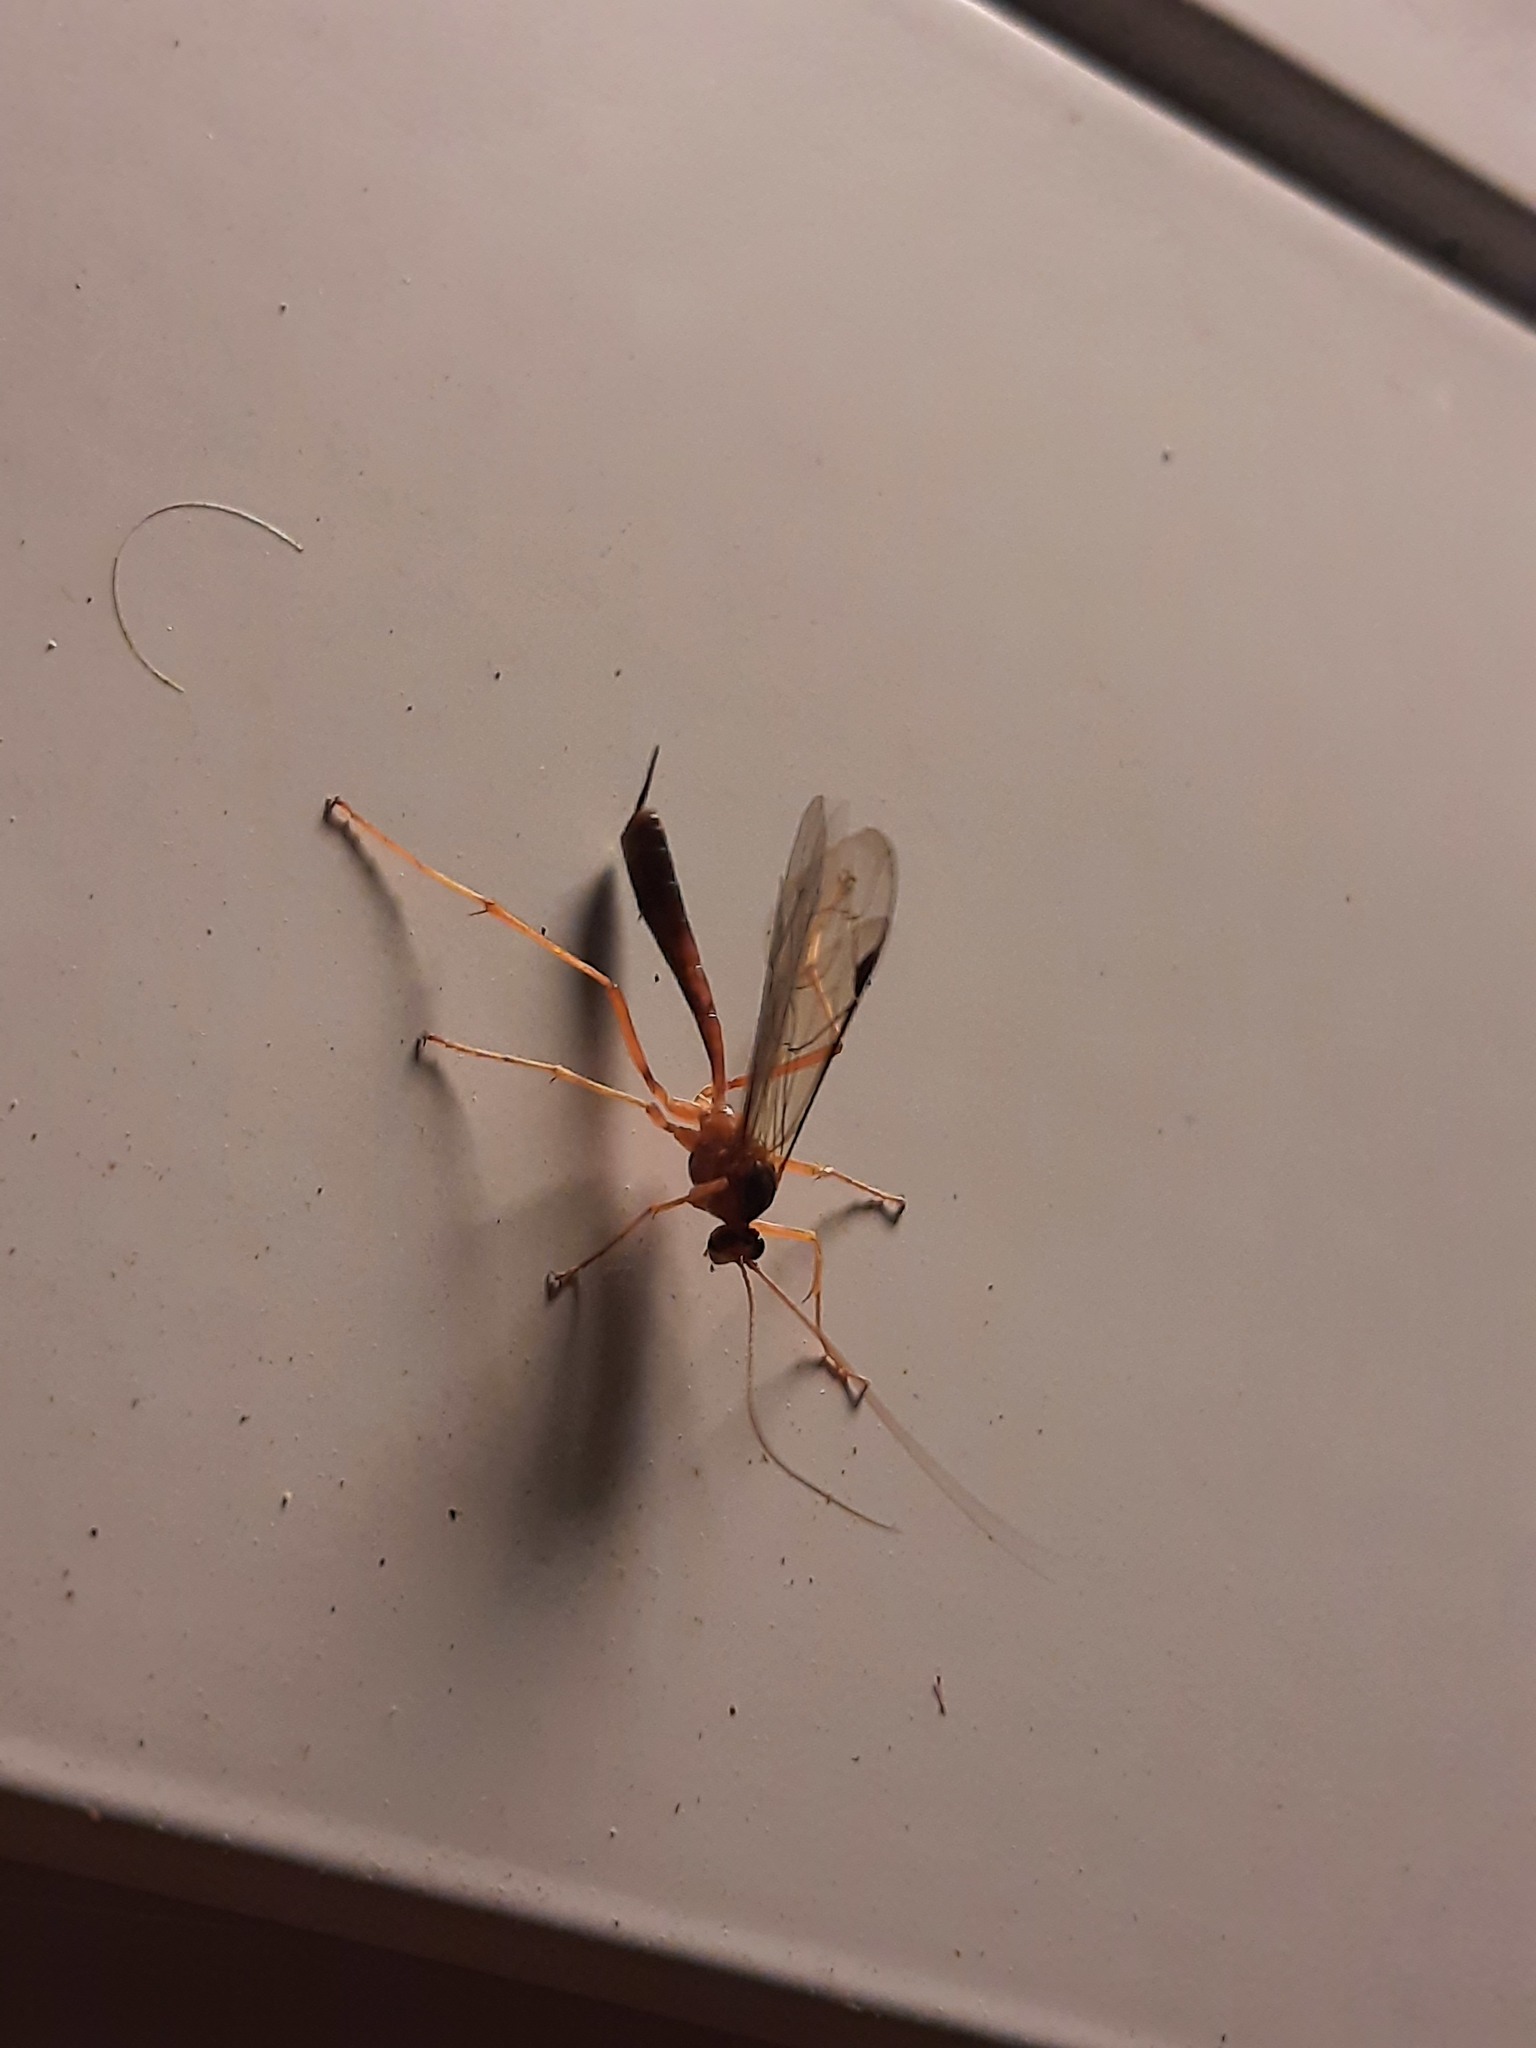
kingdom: Animalia
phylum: Arthropoda
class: Insecta
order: Hymenoptera
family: Ichneumonidae
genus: Netelia
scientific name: Netelia ephippiata
